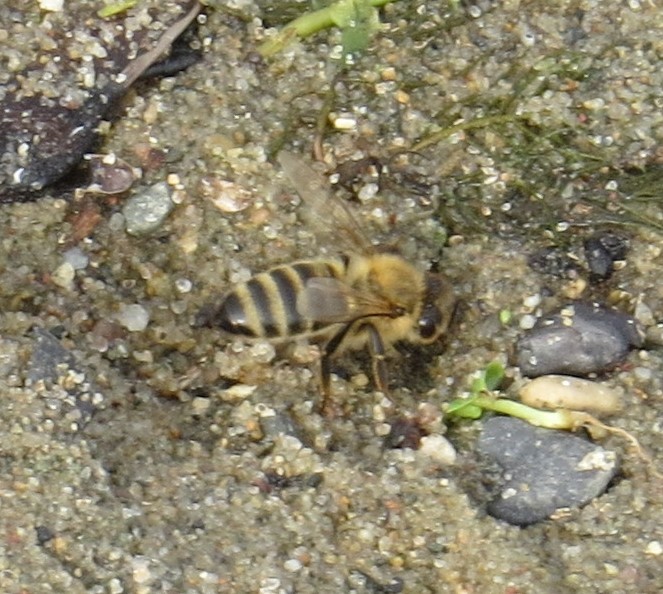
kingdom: Animalia
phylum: Arthropoda
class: Insecta
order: Hymenoptera
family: Apidae
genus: Apis
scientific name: Apis mellifera
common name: Honey bee
